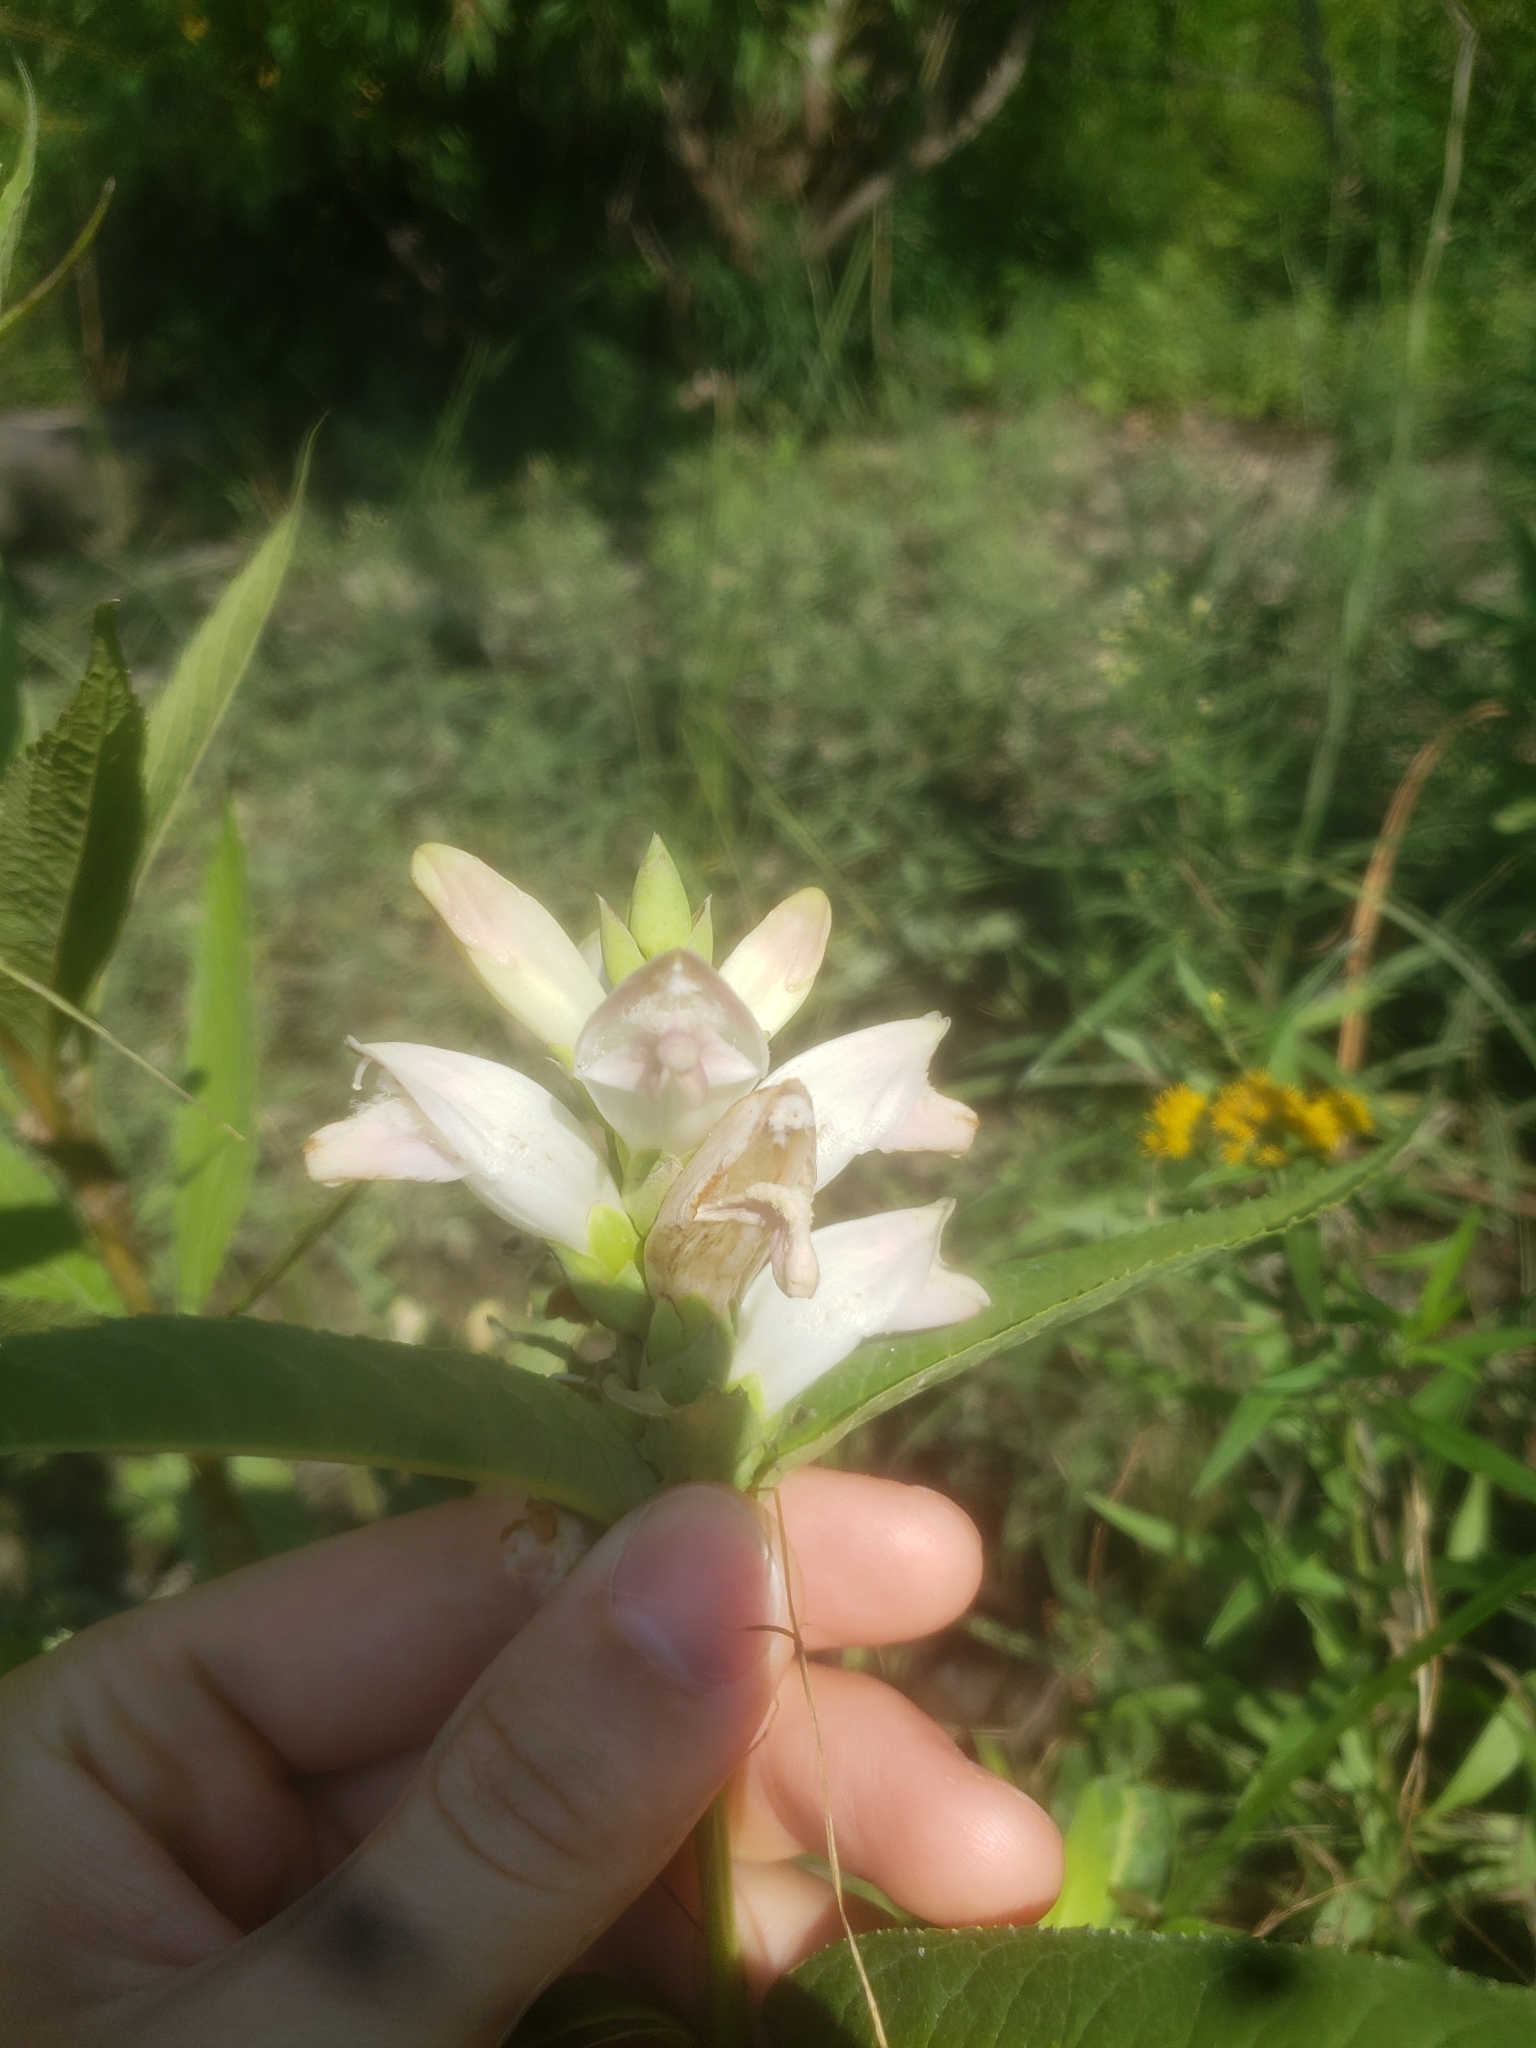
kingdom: Plantae
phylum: Tracheophyta
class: Magnoliopsida
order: Lamiales
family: Plantaginaceae
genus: Chelone
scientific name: Chelone glabra
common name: Snakehead
